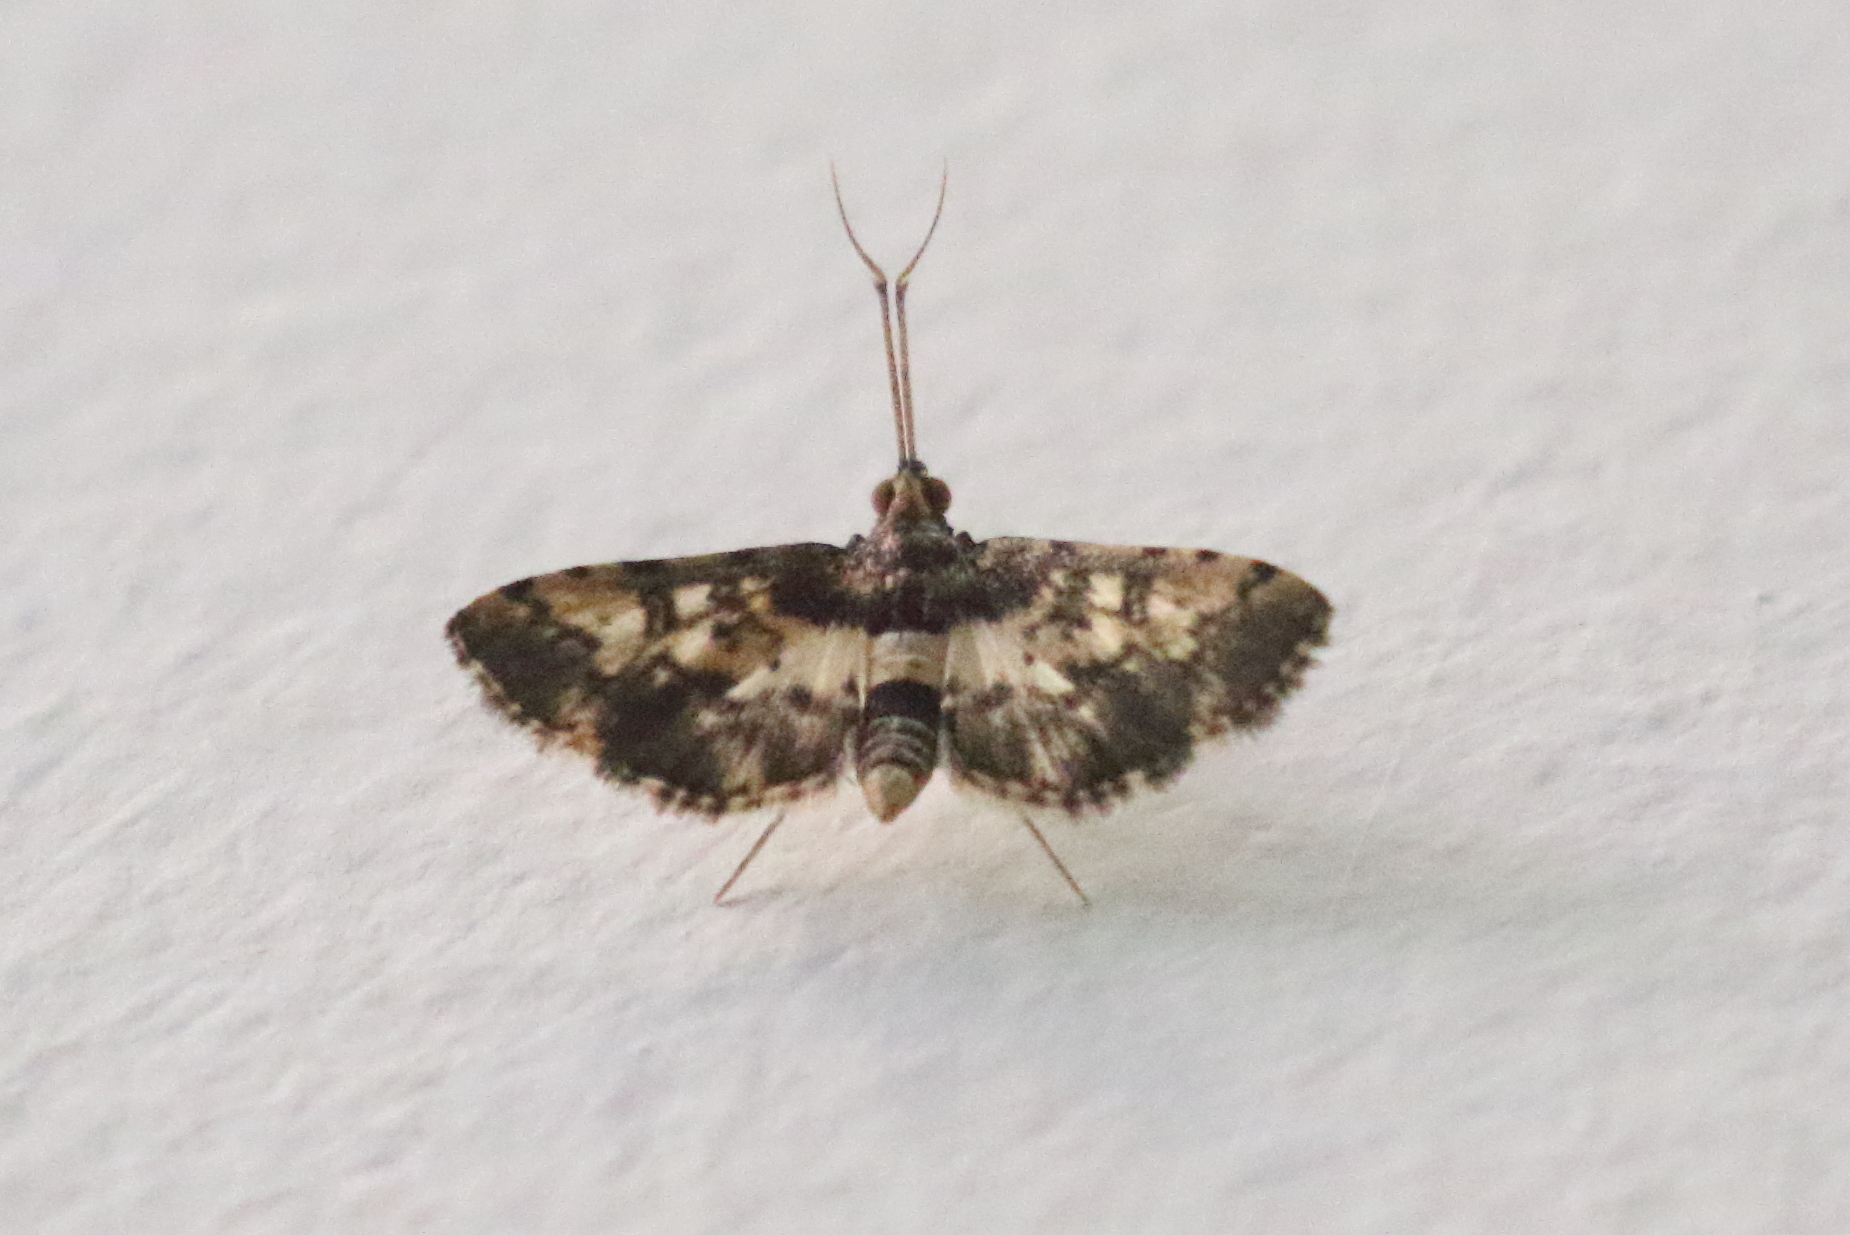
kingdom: Animalia
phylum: Arthropoda
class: Insecta
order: Lepidoptera
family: Crambidae
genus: Nacoleia
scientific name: Nacoleia amphicedalis
